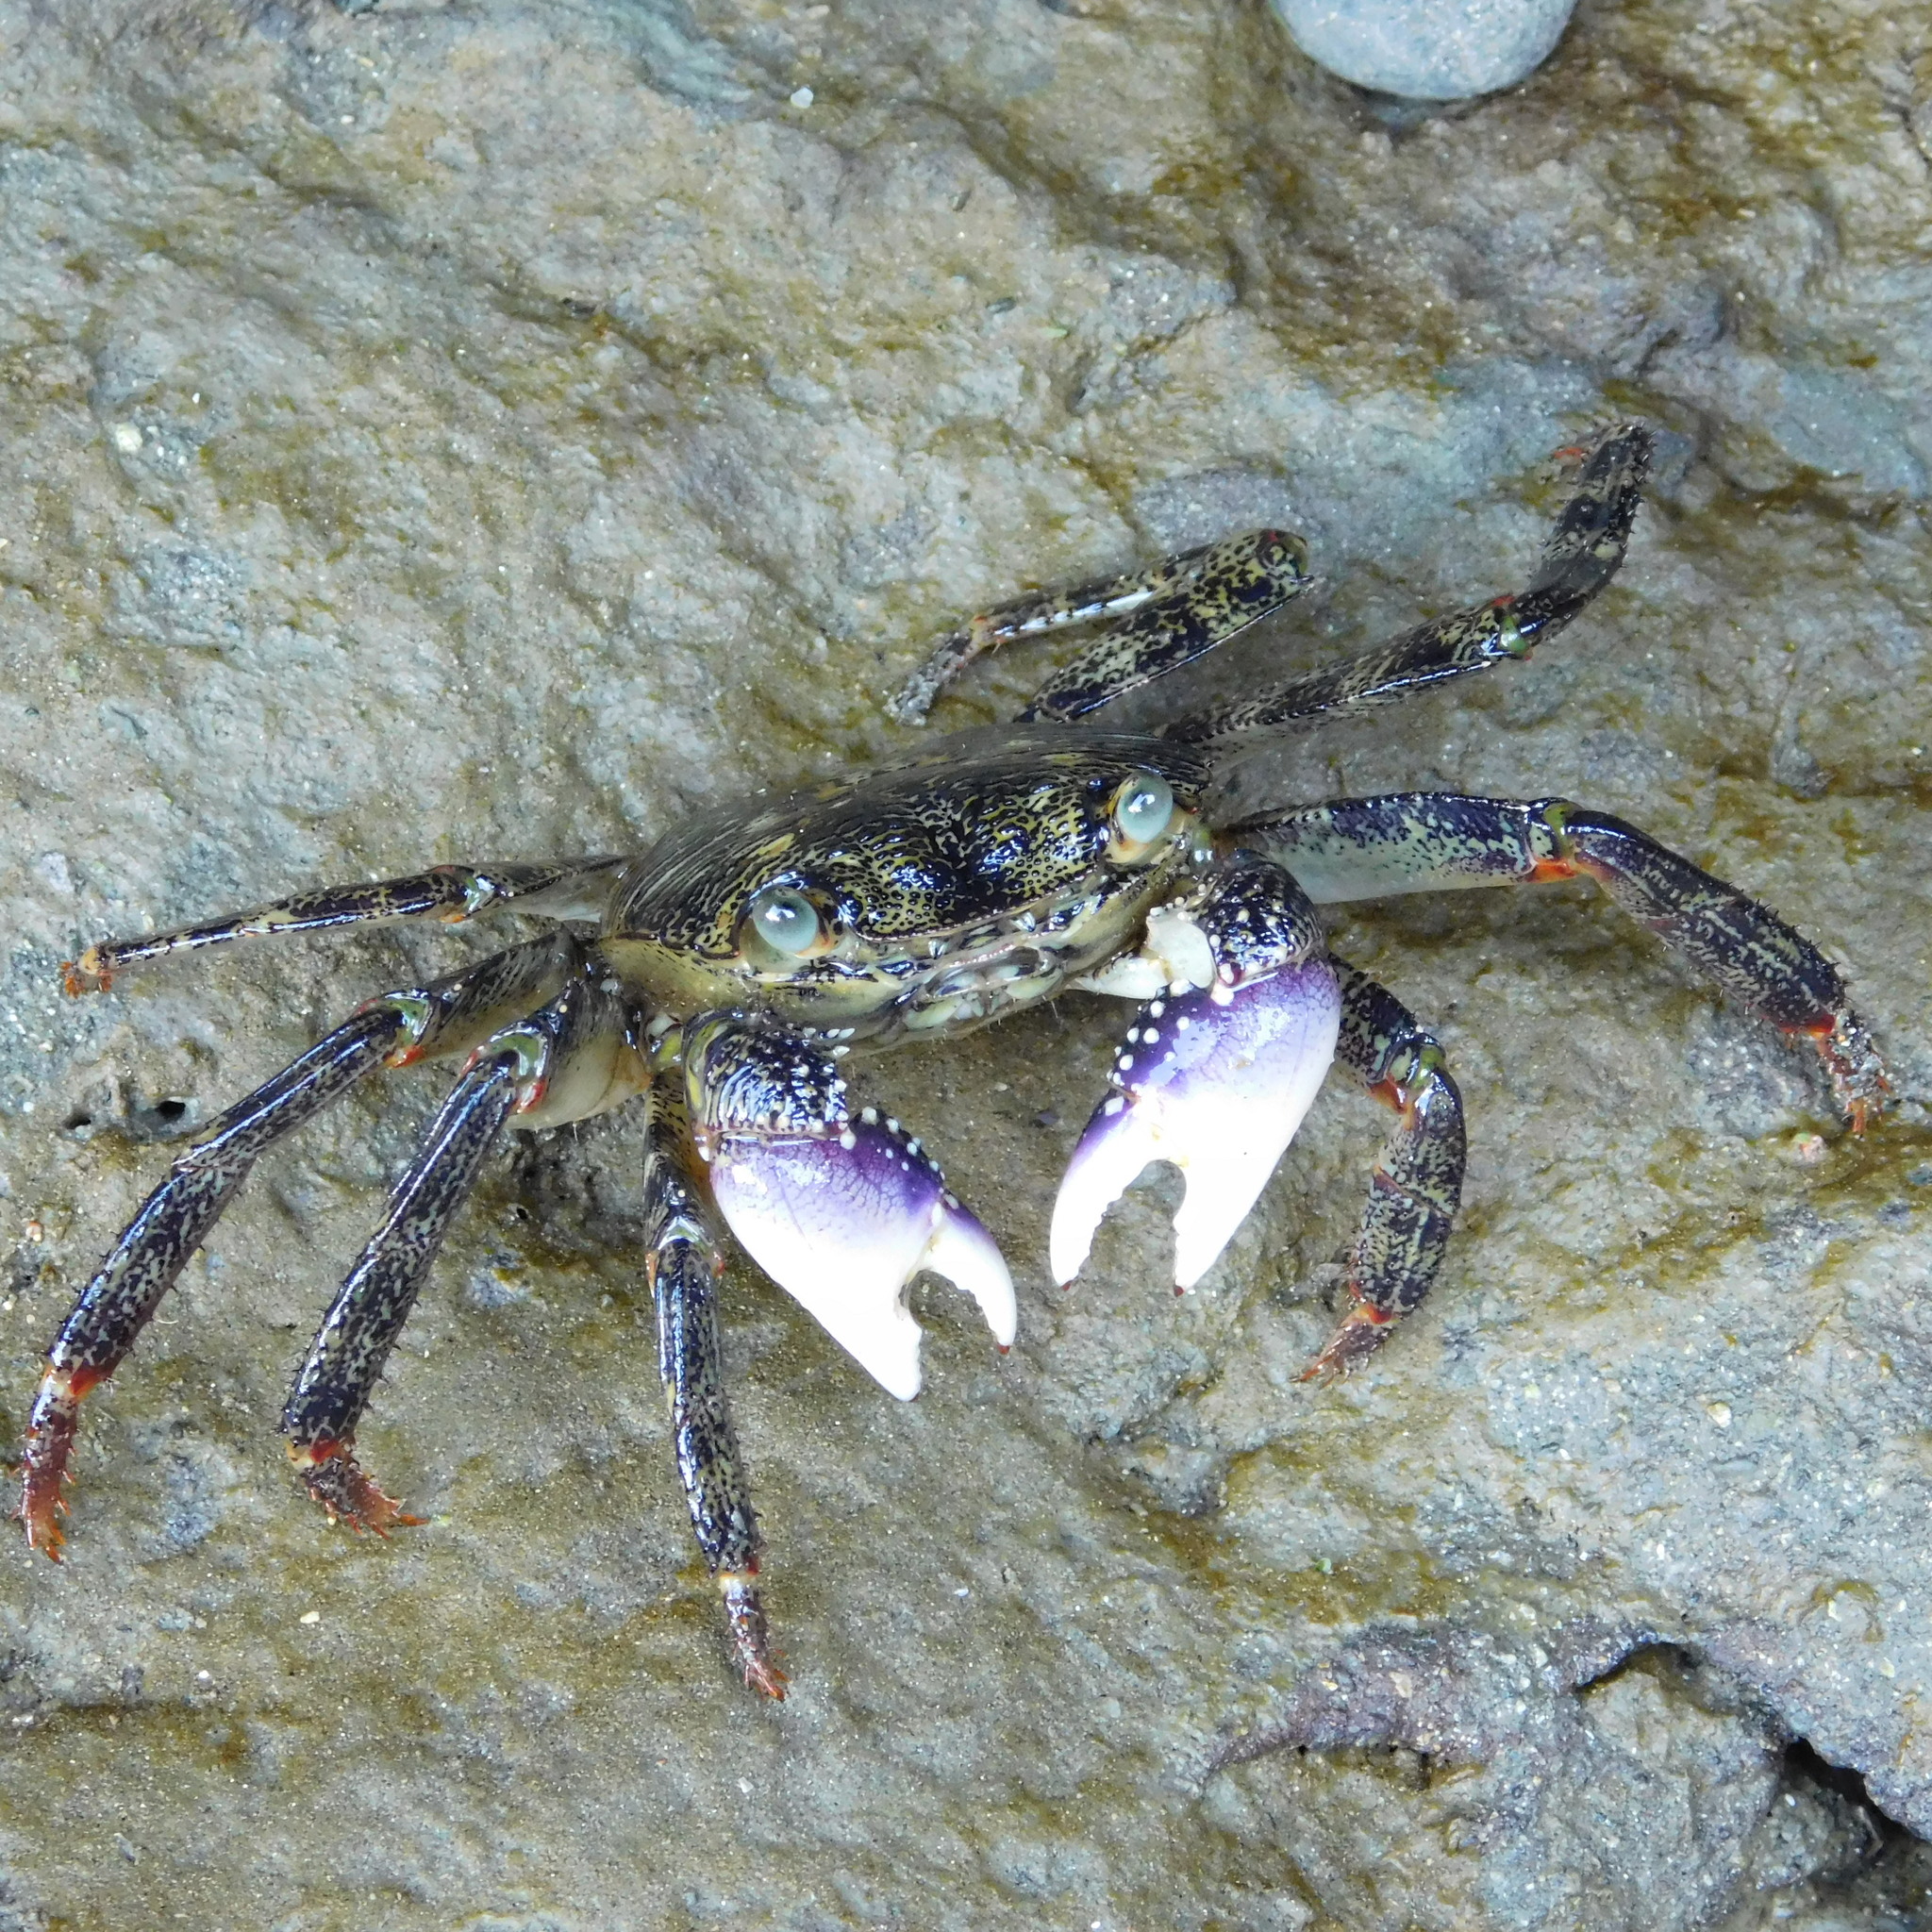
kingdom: Animalia
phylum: Arthropoda
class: Malacostraca
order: Decapoda
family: Grapsidae
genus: Leptograpsus
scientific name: Leptograpsus variegatus
